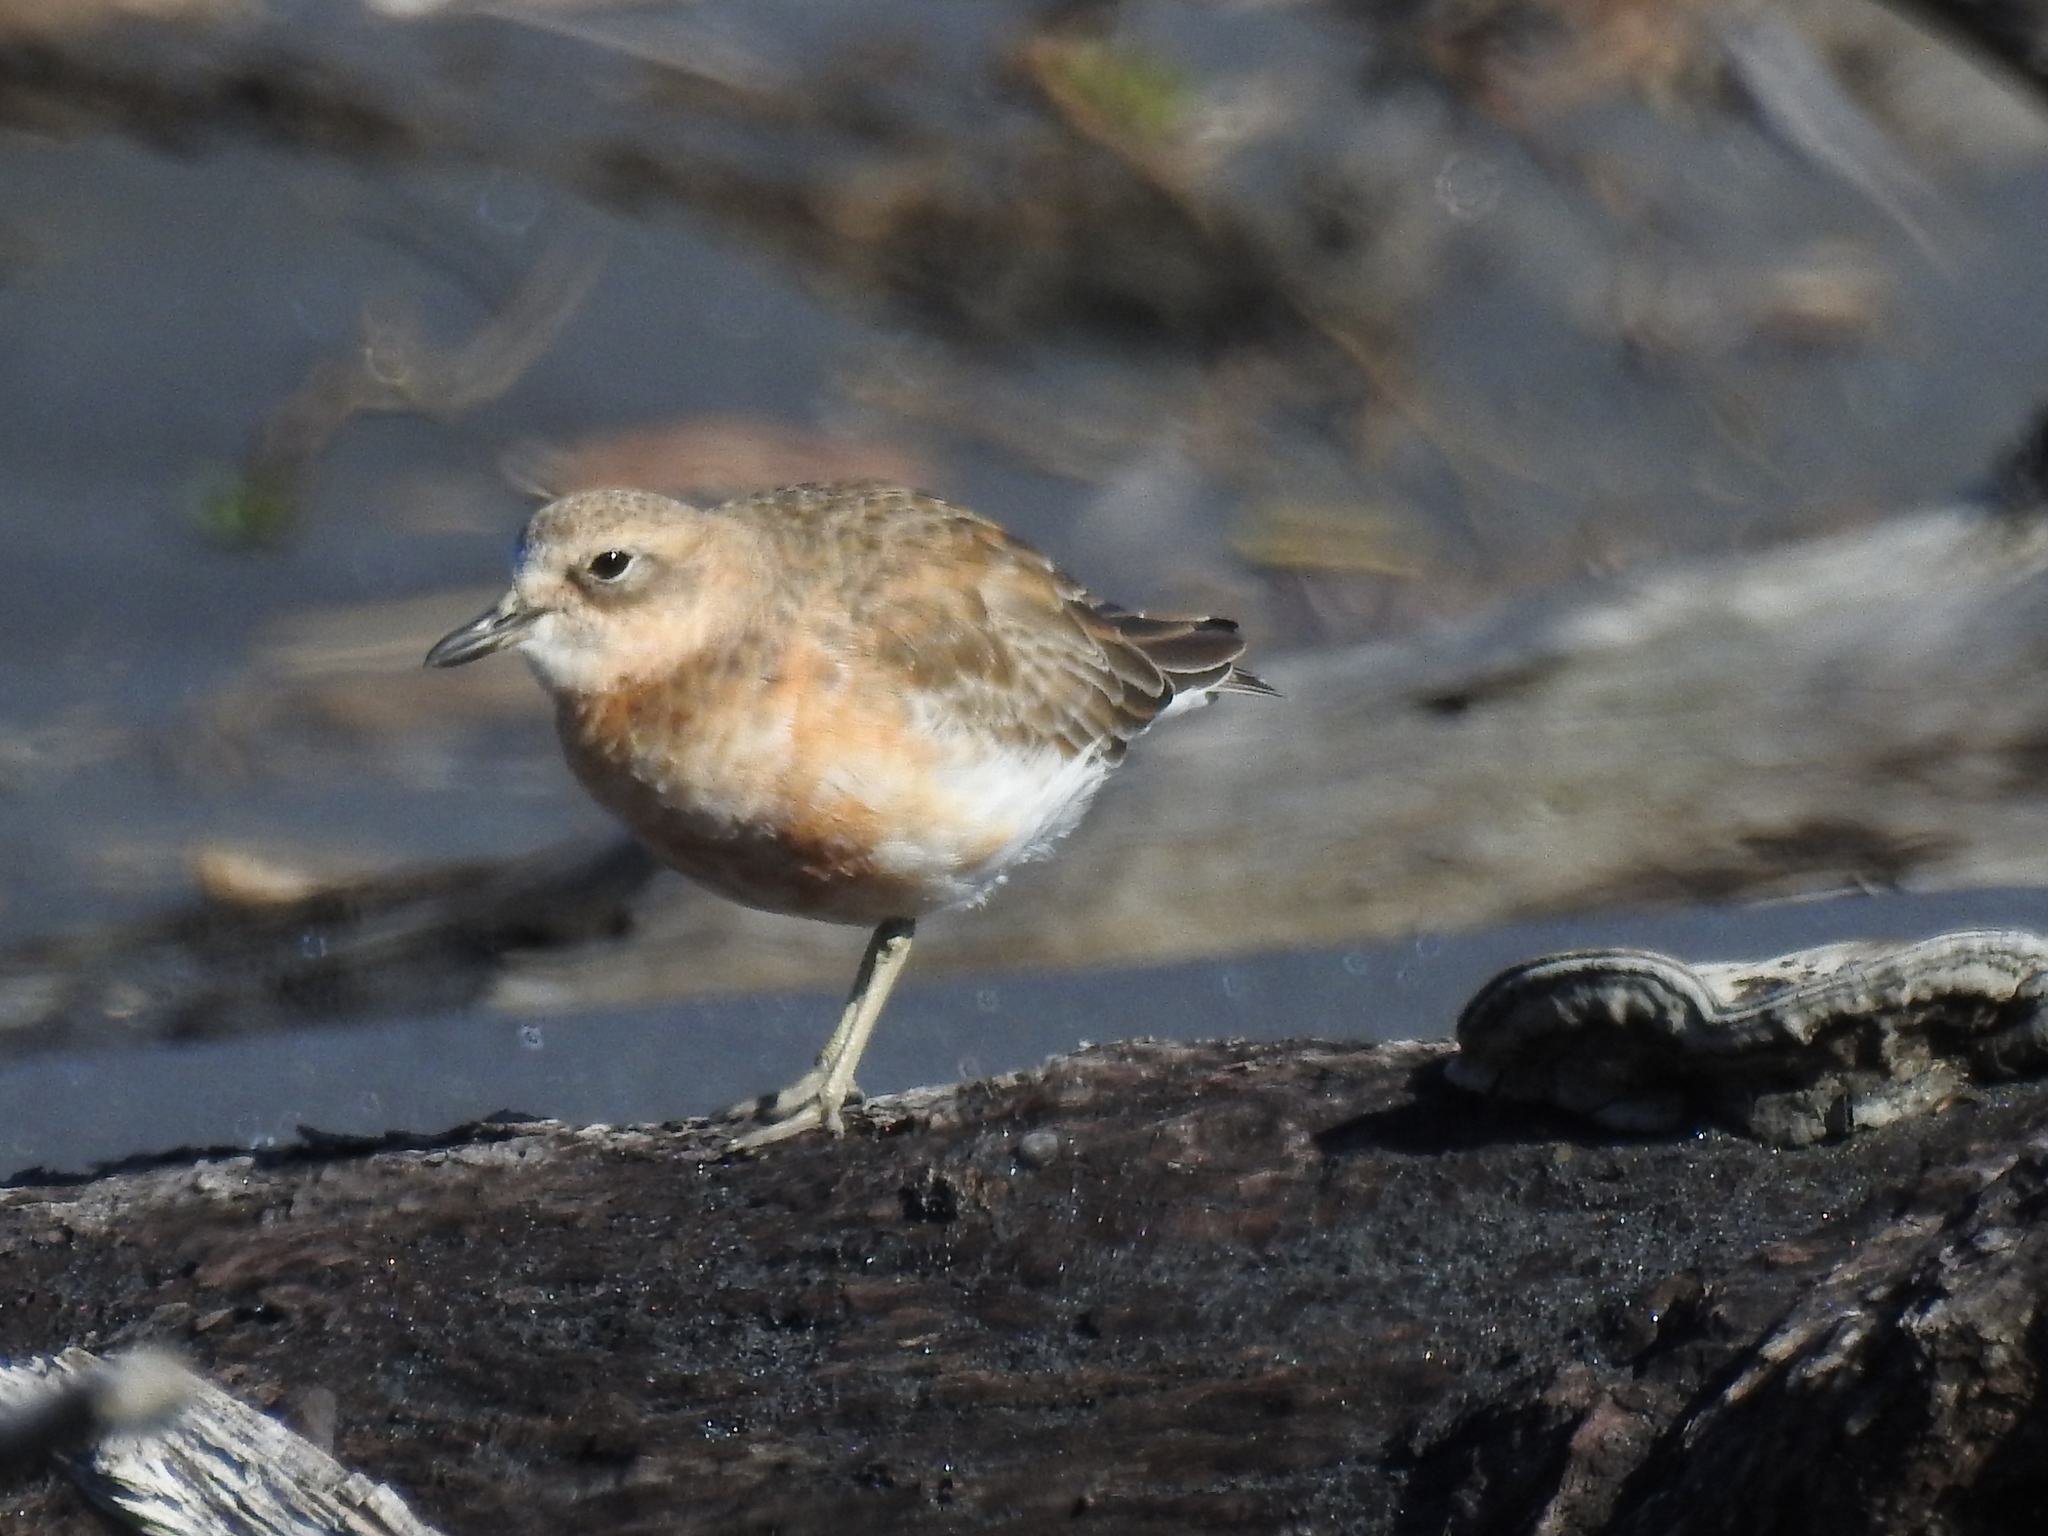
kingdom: Animalia
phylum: Chordata
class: Aves
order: Charadriiformes
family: Charadriidae
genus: Anarhynchus
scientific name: Anarhynchus
